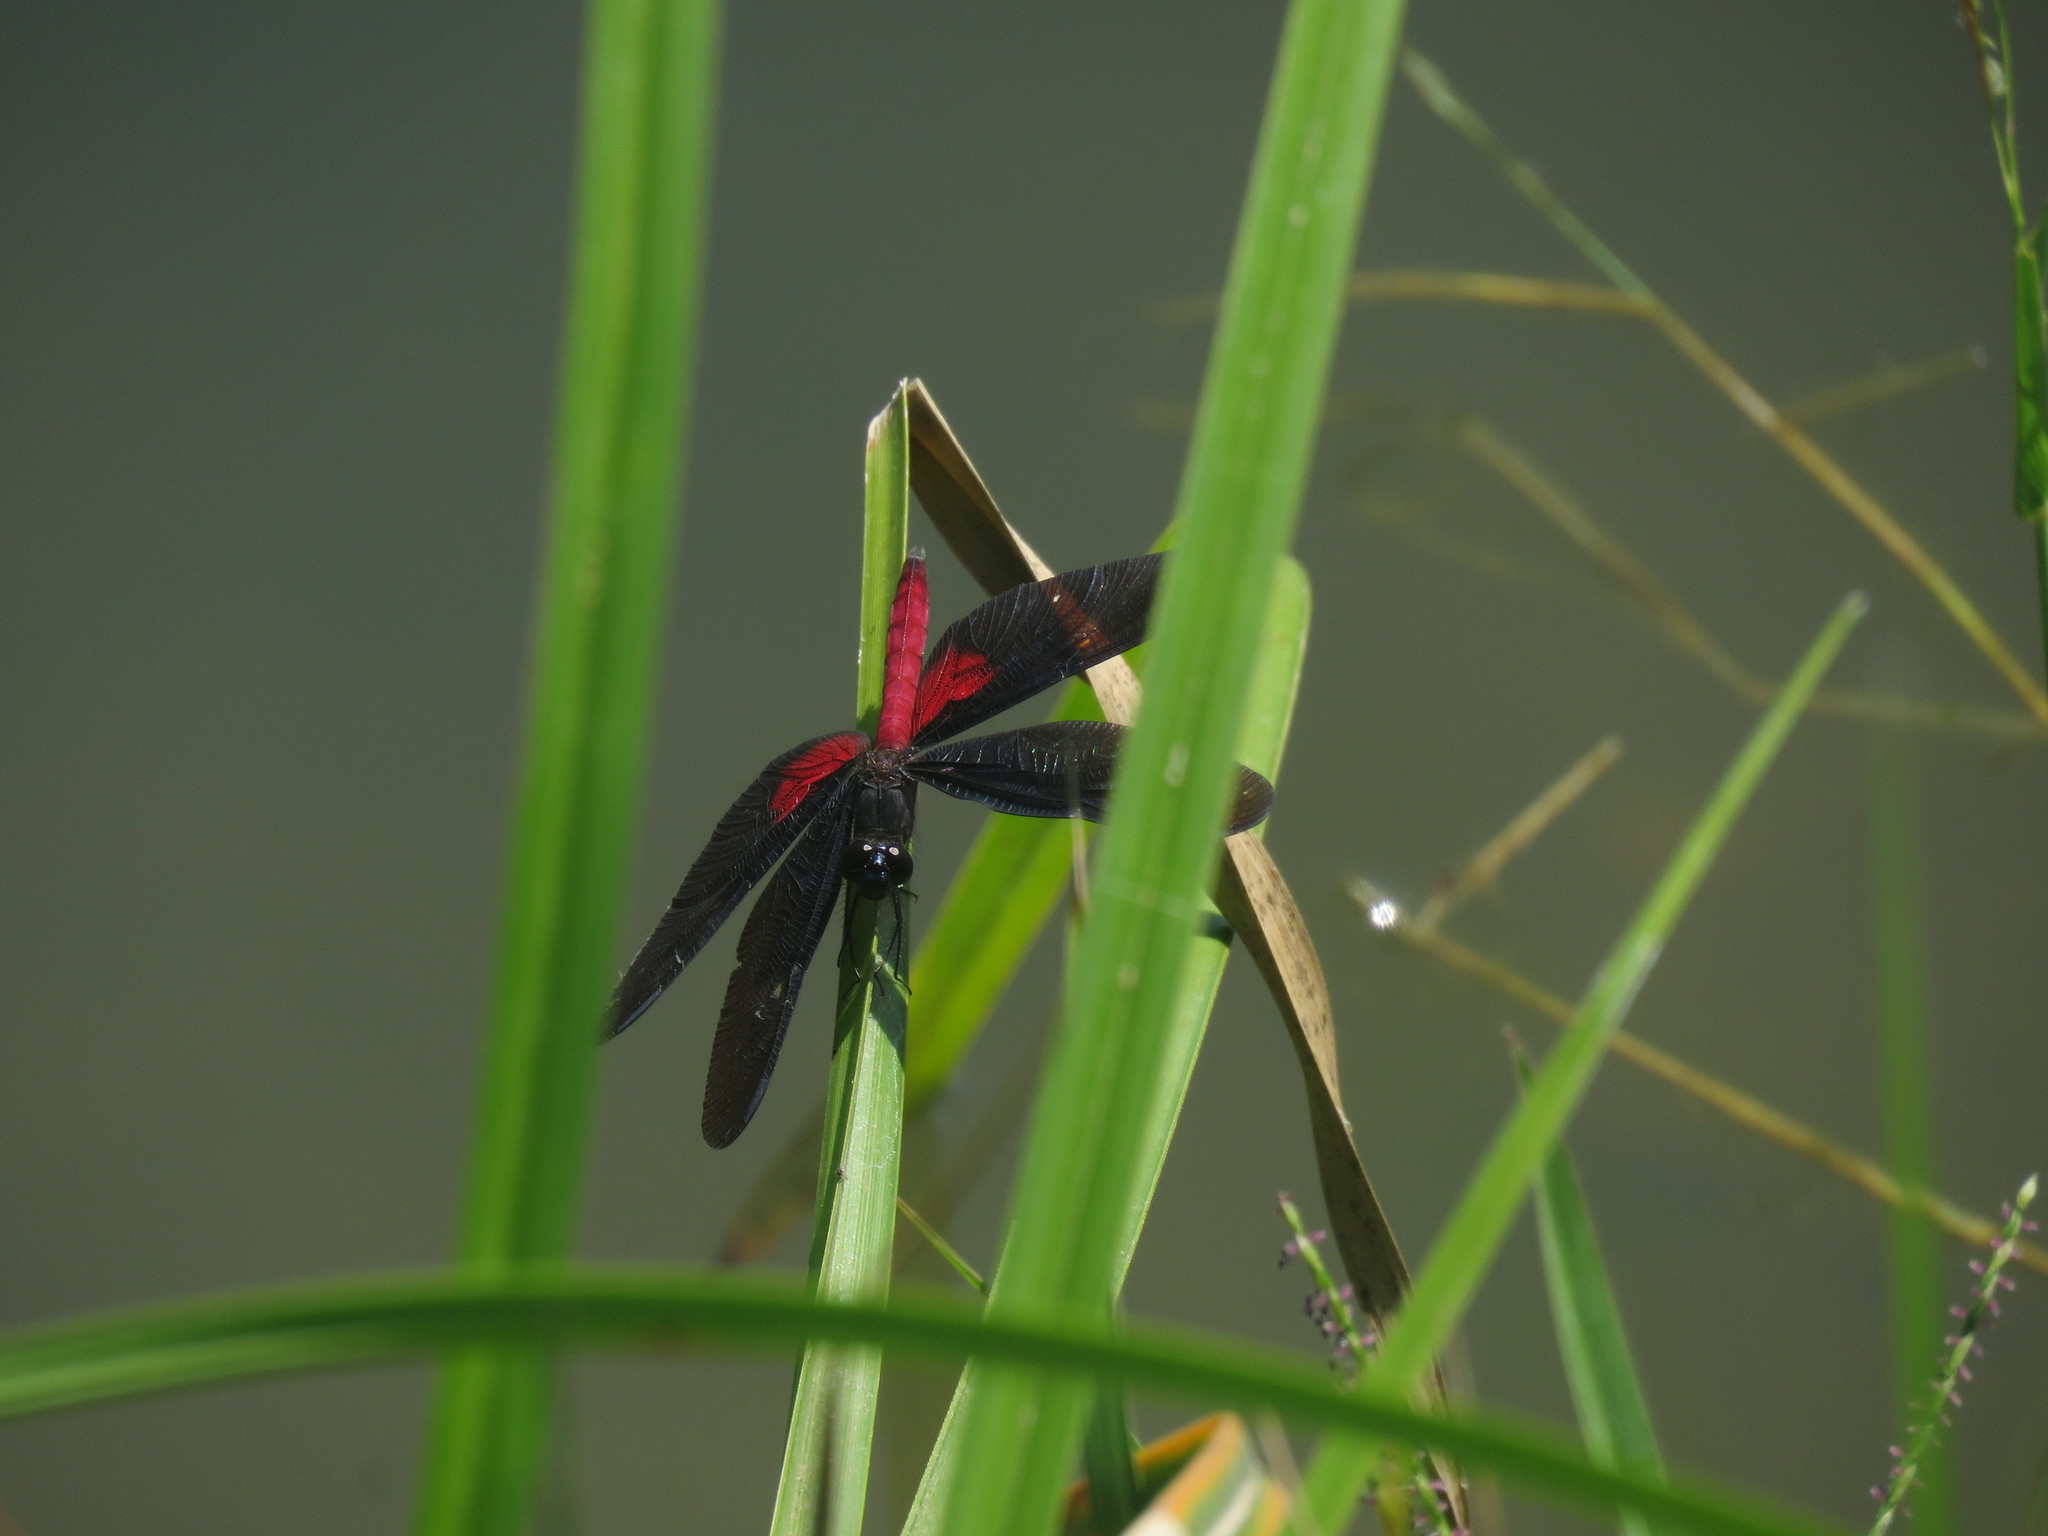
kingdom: Animalia
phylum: Arthropoda
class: Insecta
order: Odonata
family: Libellulidae
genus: Diastatops
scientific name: Diastatops intensa
